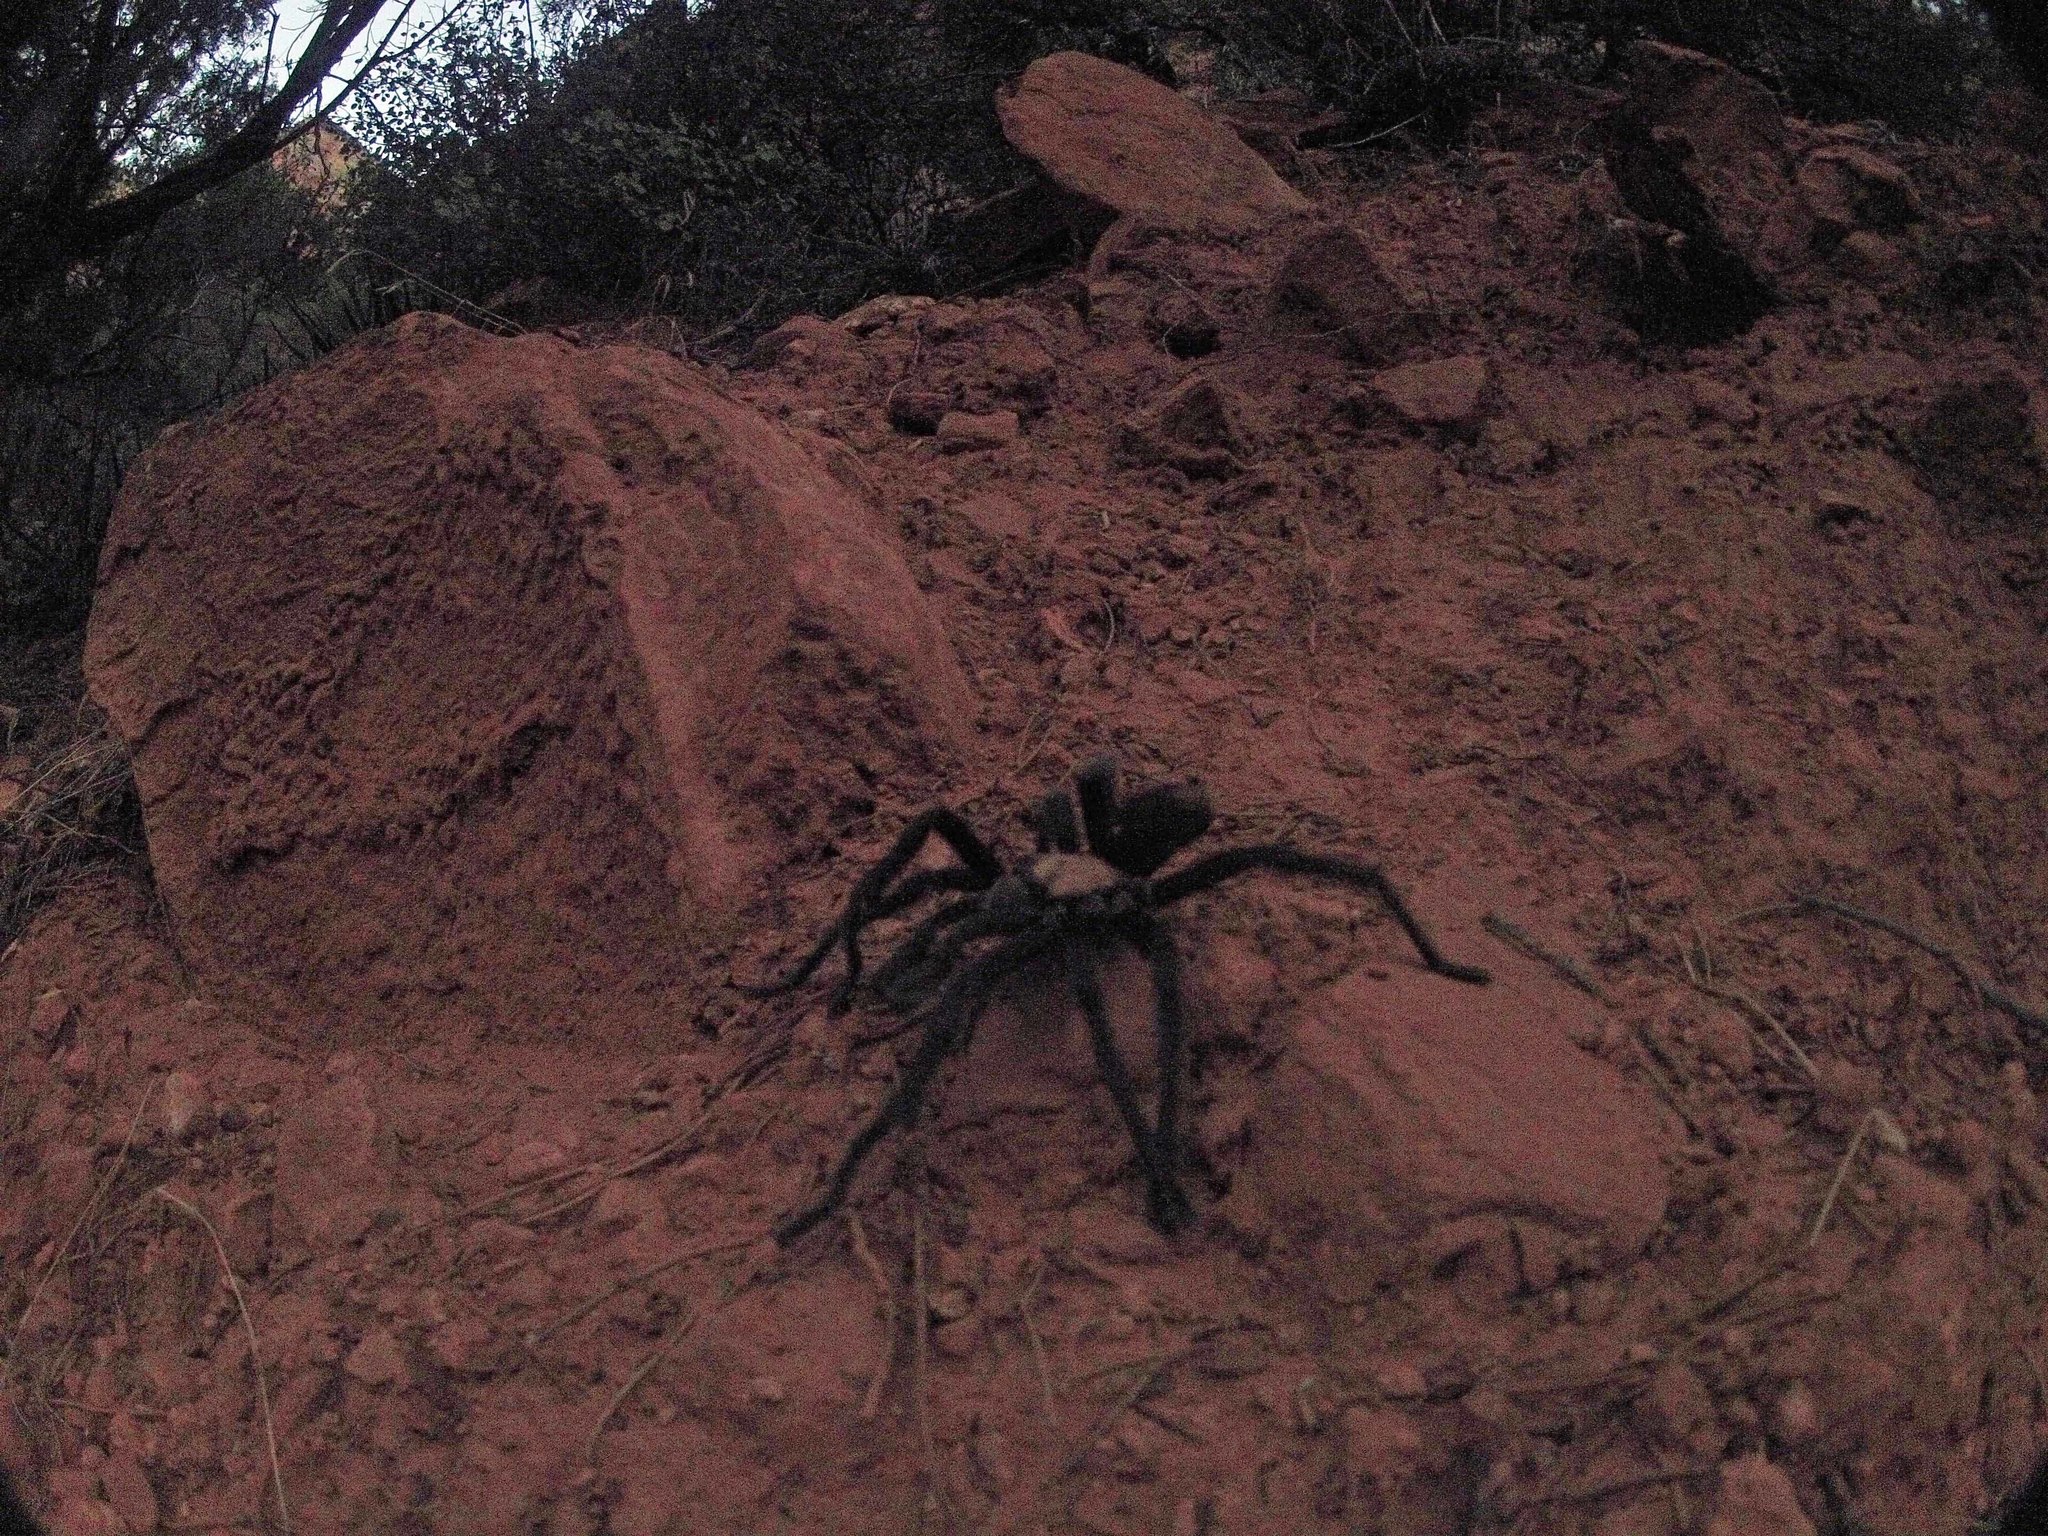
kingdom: Animalia
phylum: Arthropoda
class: Arachnida
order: Araneae
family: Theraphosidae
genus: Aphonopelma
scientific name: Aphonopelma iodius
